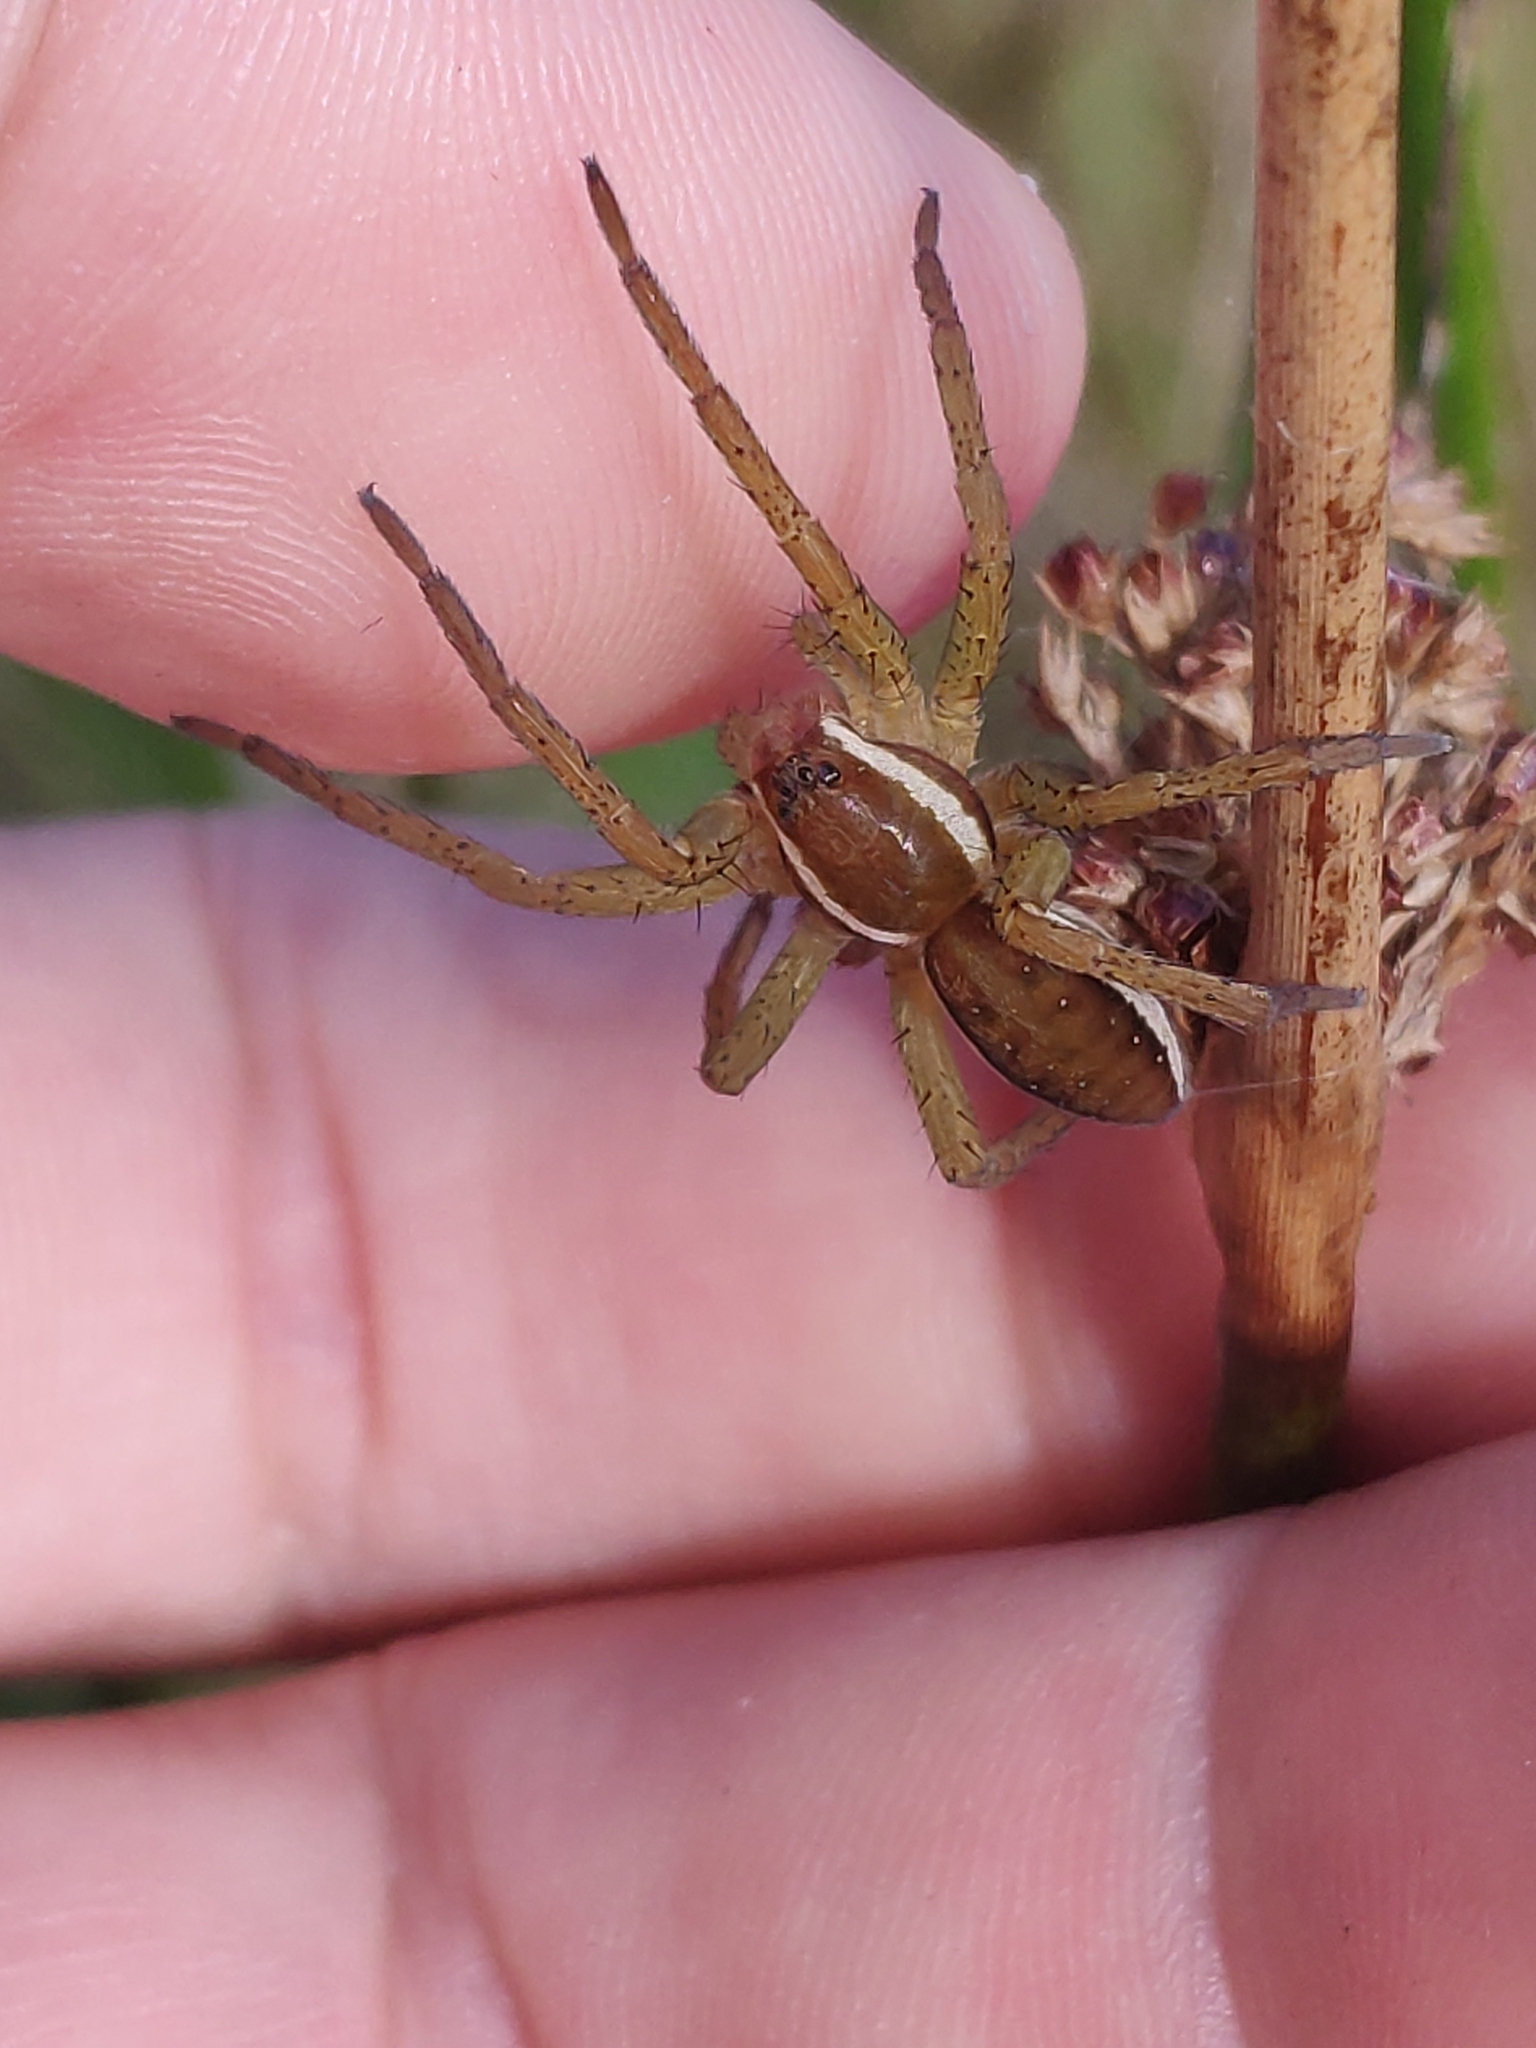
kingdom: Animalia
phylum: Arthropoda
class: Arachnida
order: Araneae
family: Pisauridae
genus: Dolomedes
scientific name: Dolomedes fimbriatus
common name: Raft spider
